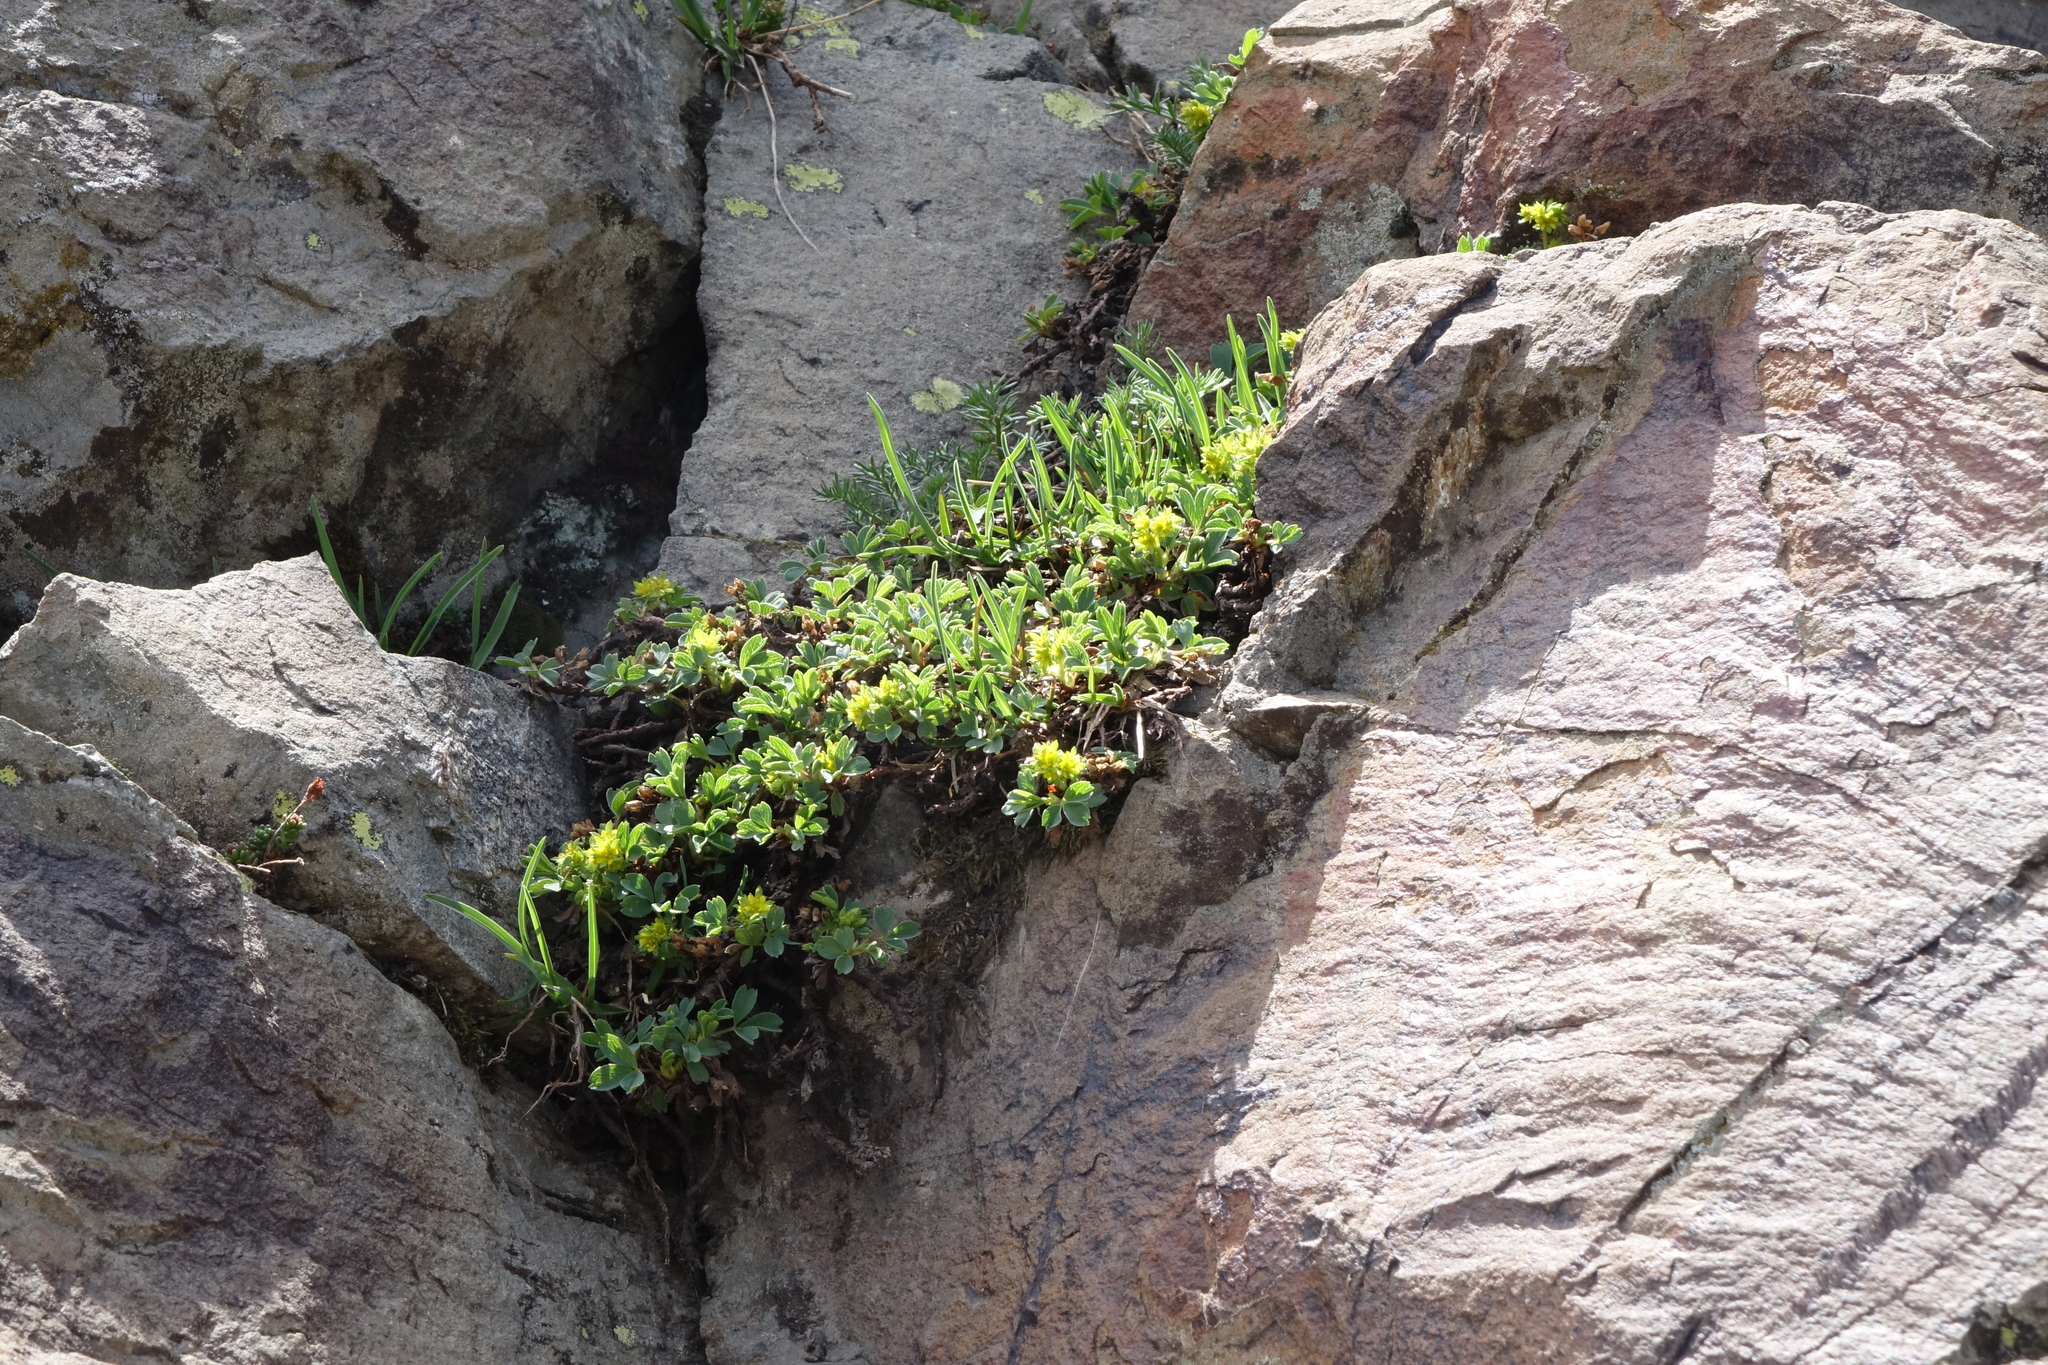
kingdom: Plantae
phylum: Tracheophyta
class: Magnoliopsida
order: Rosales
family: Rosaceae
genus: Sibbaldia
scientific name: Sibbaldia parviflora
